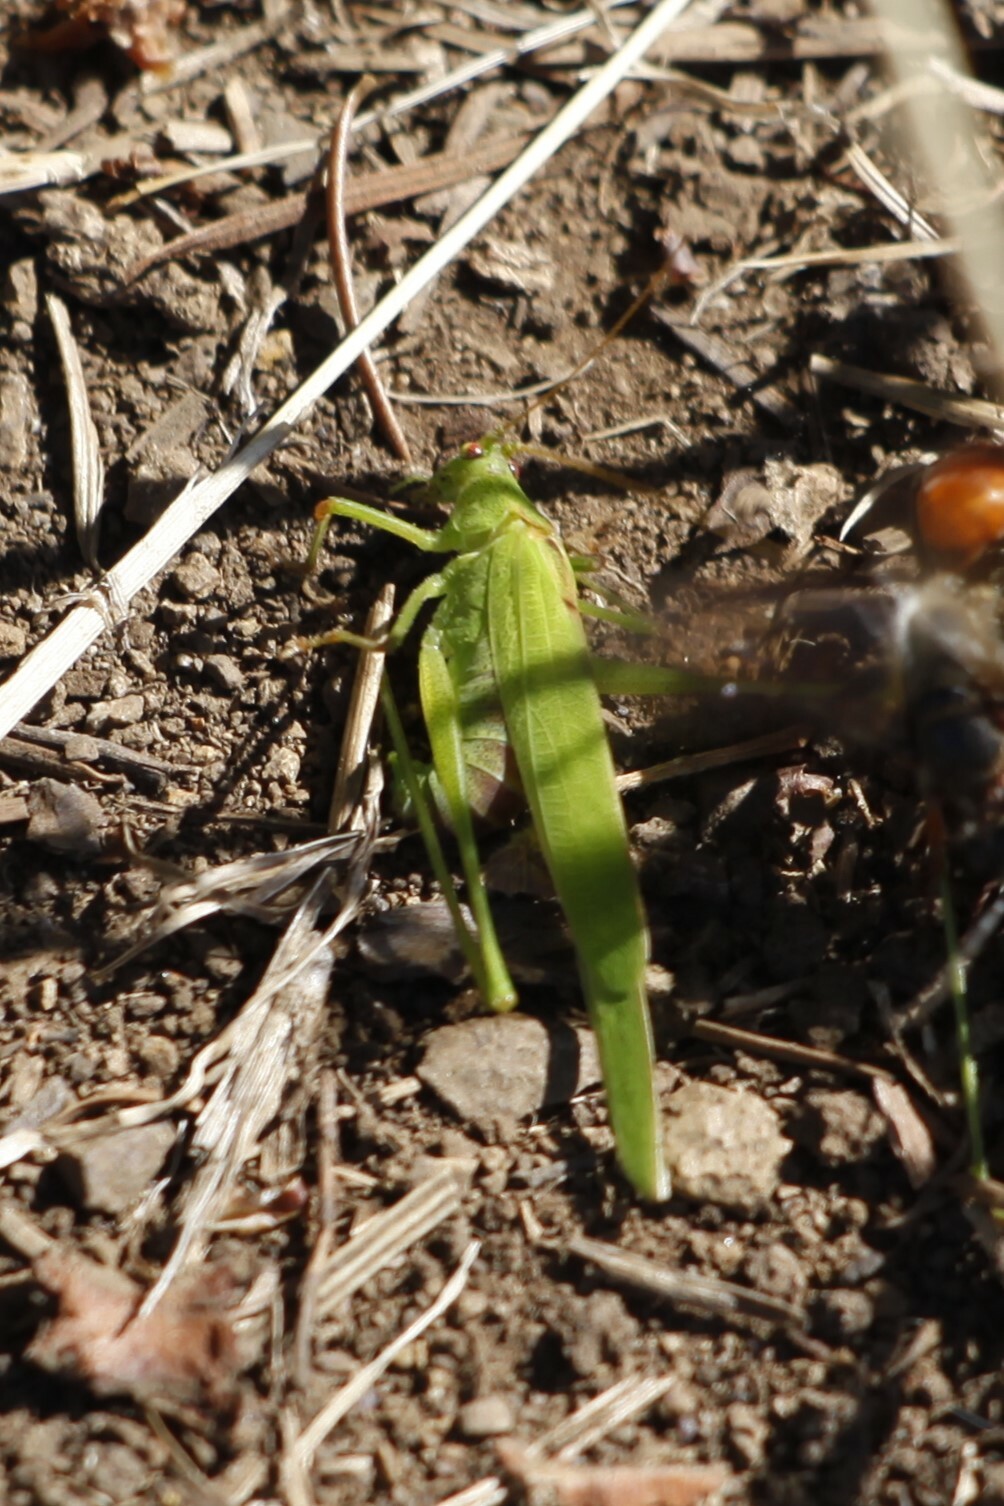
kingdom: Animalia
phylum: Arthropoda
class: Insecta
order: Orthoptera
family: Tettigoniidae
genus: Phaneroptera
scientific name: Phaneroptera falcata
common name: Sickle-bearing bush-cricket
